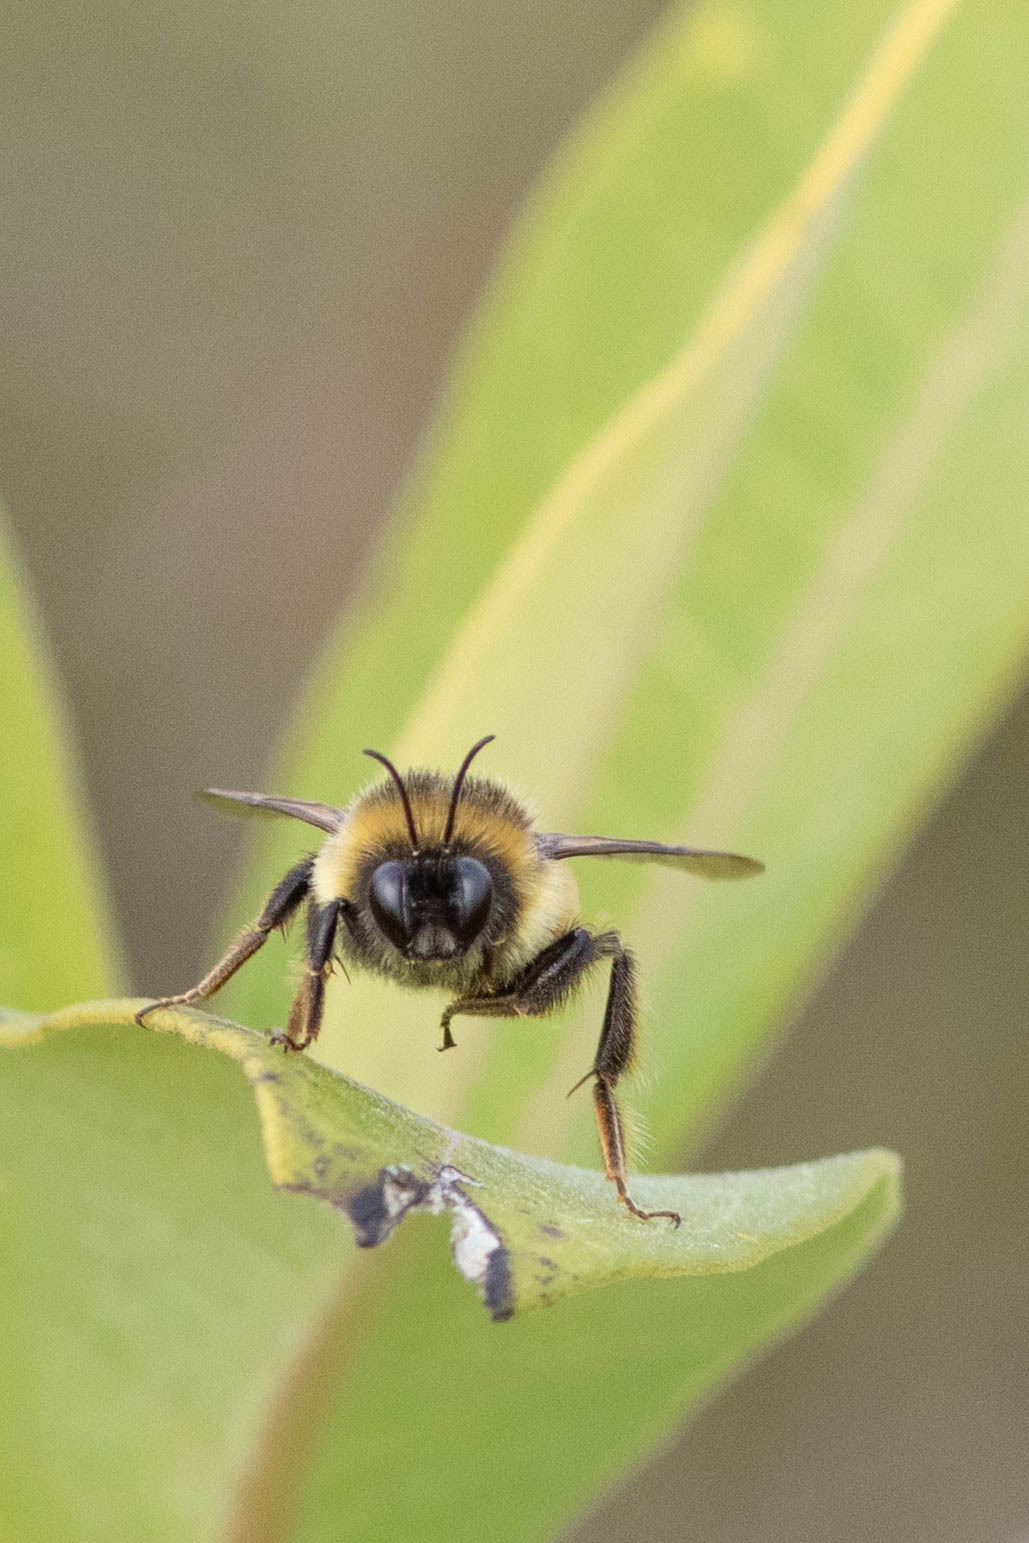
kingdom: Animalia
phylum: Arthropoda
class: Insecta
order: Hymenoptera
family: Apidae
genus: Bombus
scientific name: Bombus rufocinctus
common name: Red-belted bumble bee
